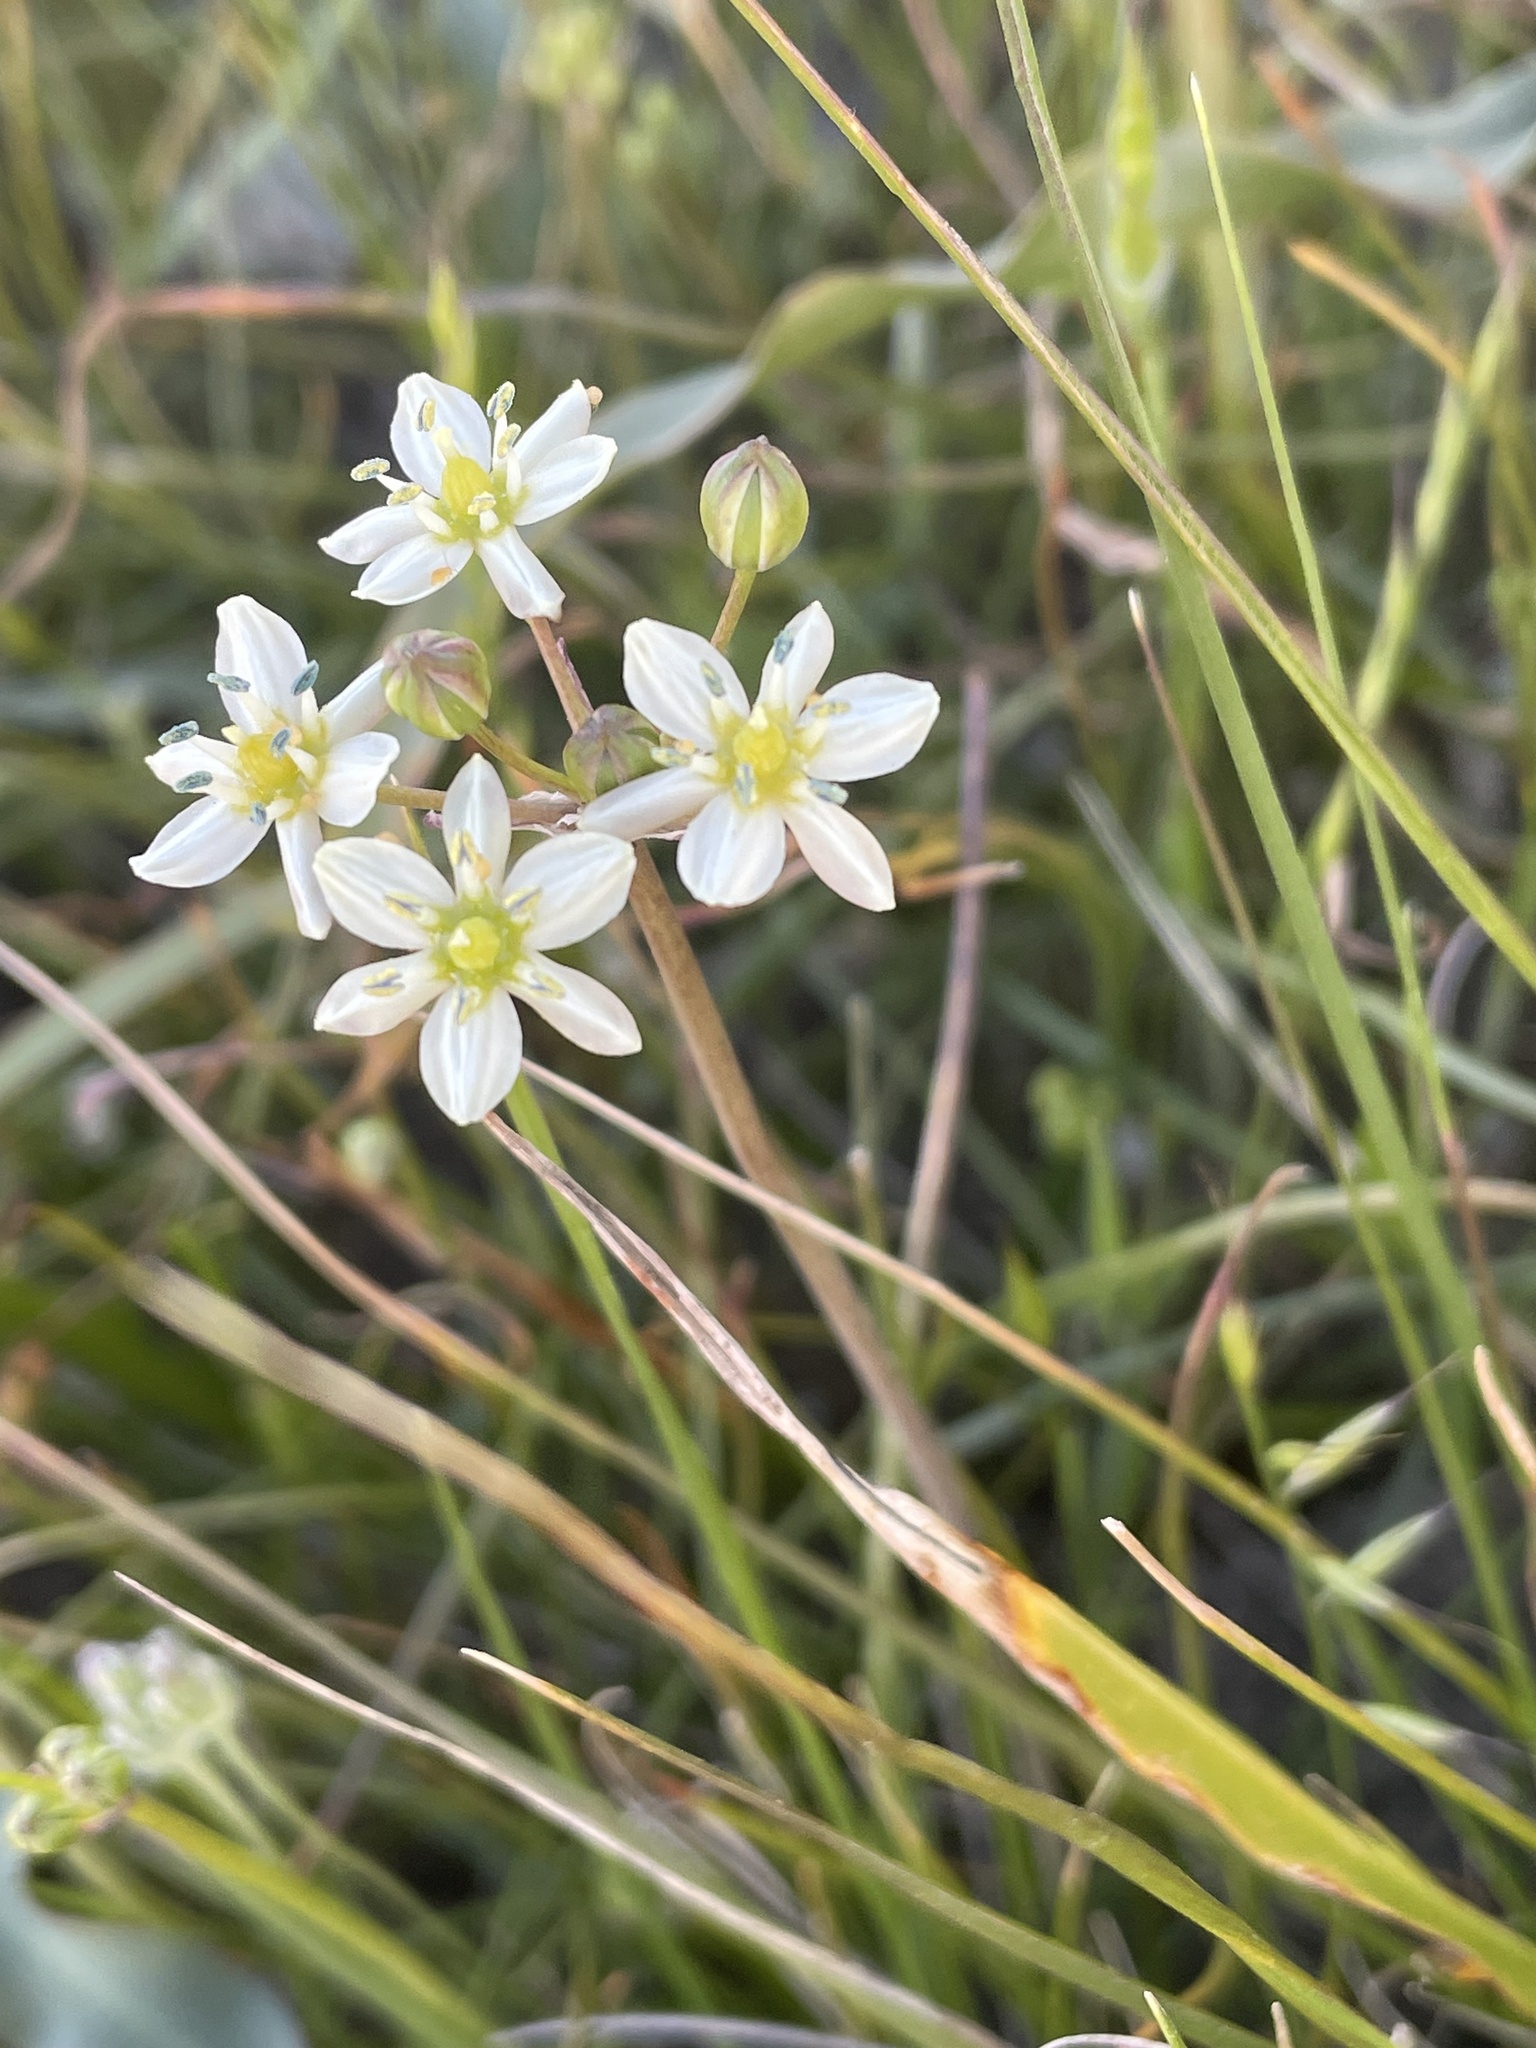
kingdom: Plantae
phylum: Tracheophyta
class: Liliopsida
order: Asparagales
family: Asparagaceae
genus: Muilla
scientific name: Muilla maritima
